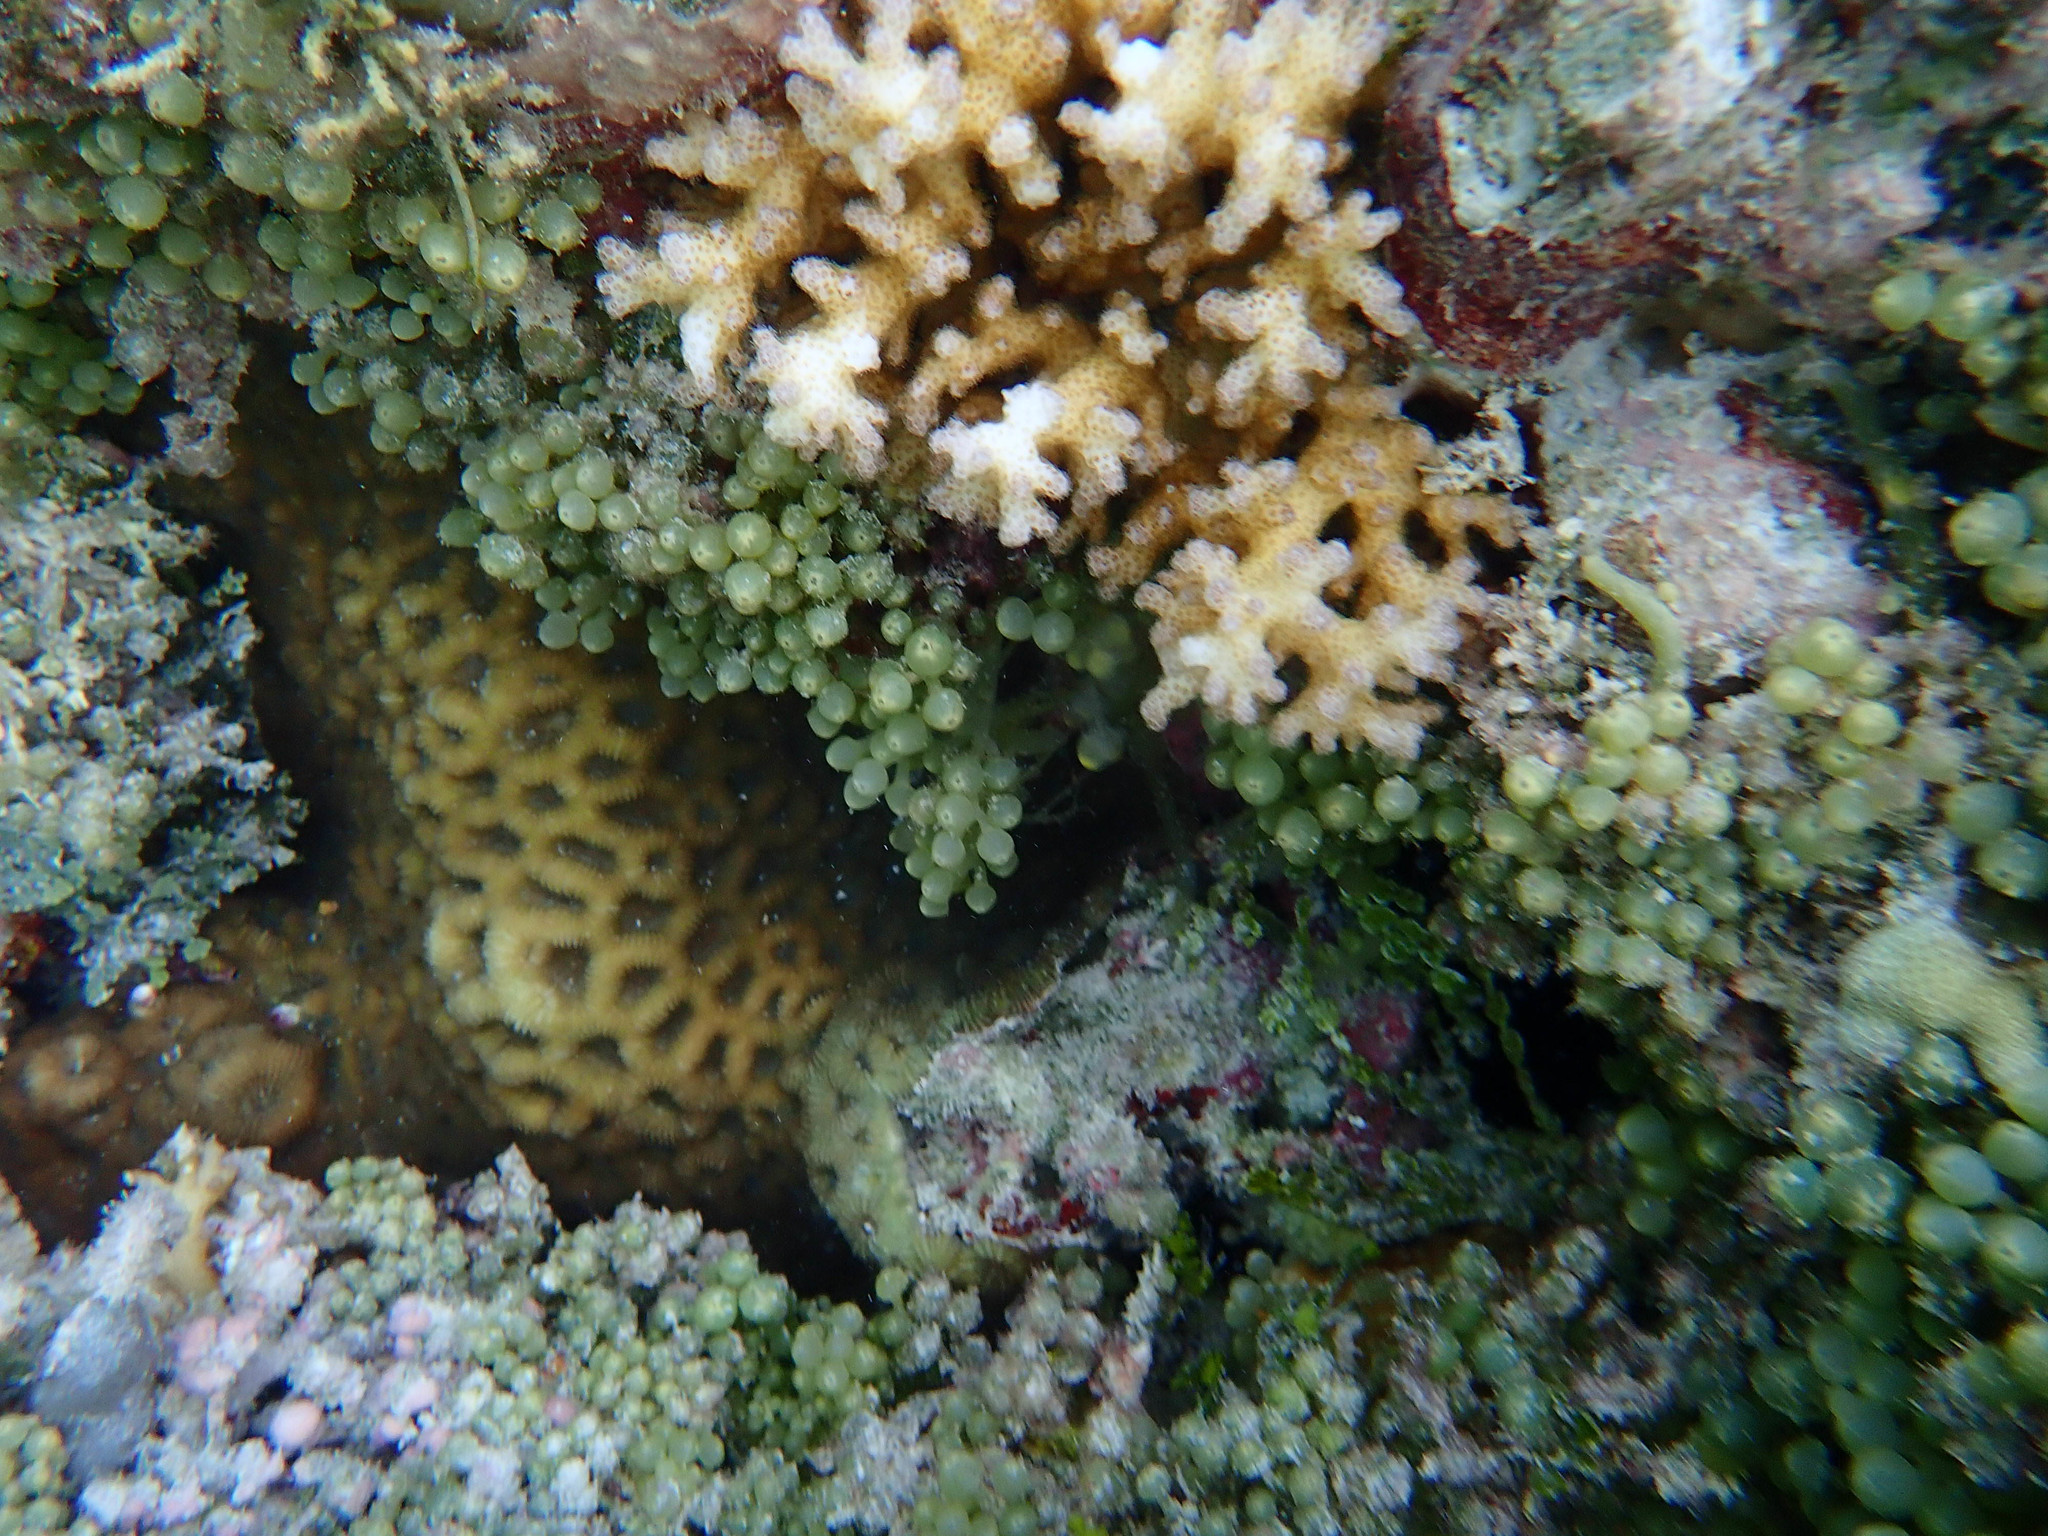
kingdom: Plantae
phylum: Chlorophyta
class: Ulvophyceae
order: Bryopsidales
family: Caulerpaceae
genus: Caulerpa
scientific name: Caulerpa racemosa
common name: Green grape algae
